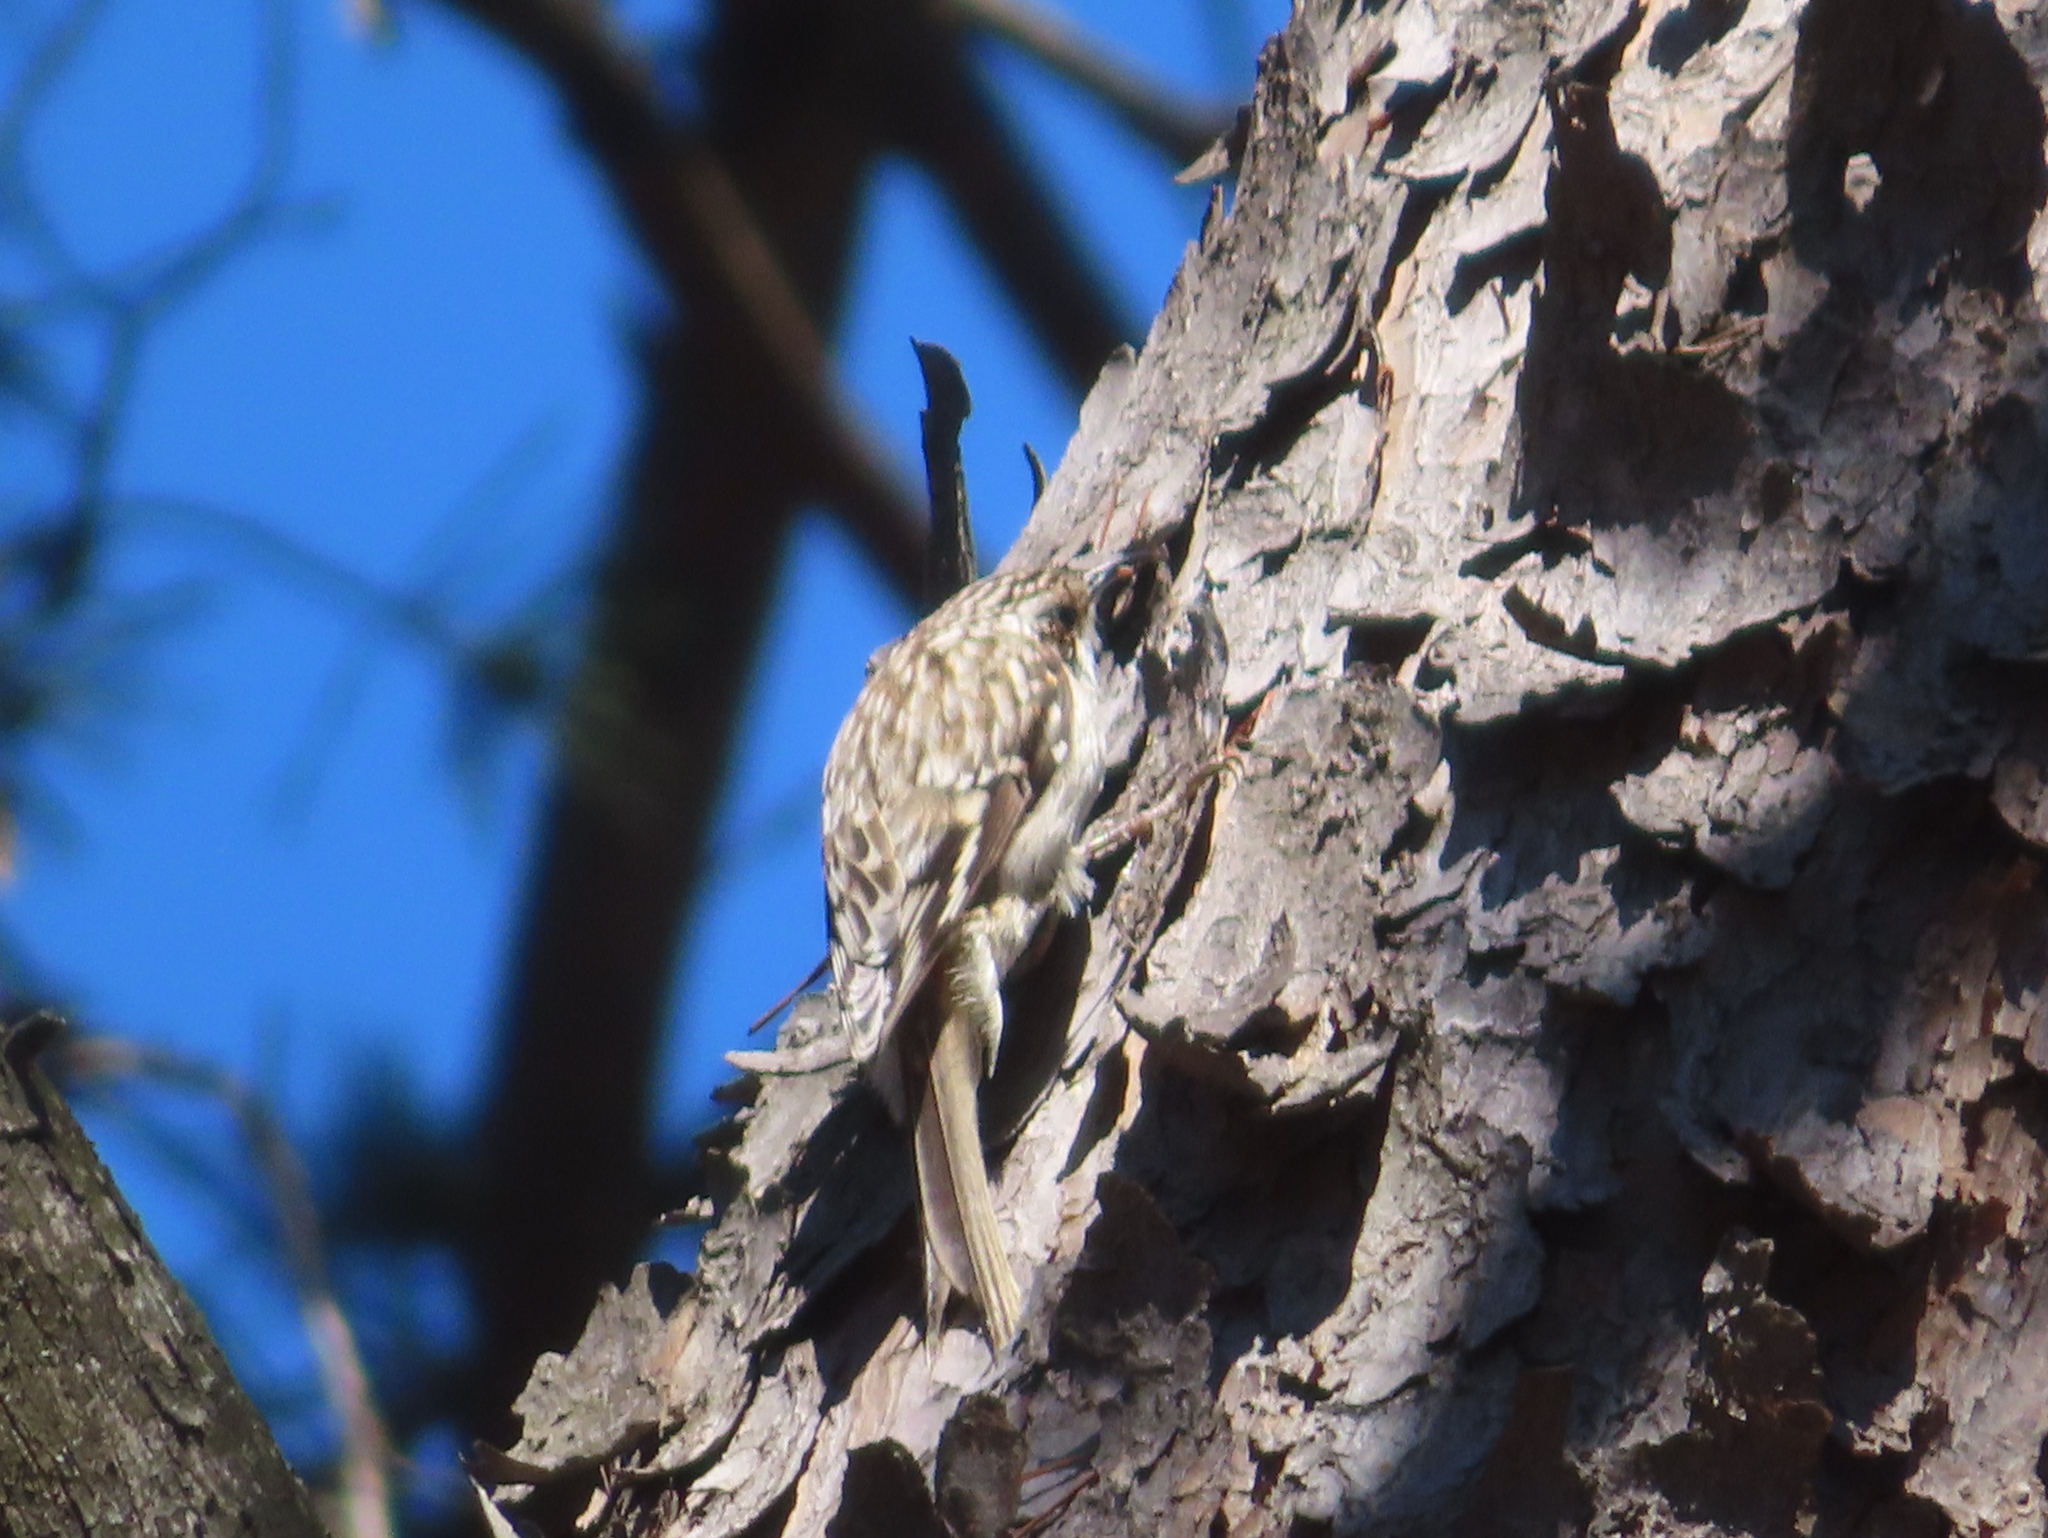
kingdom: Animalia
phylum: Chordata
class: Aves
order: Passeriformes
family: Certhiidae
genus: Certhia
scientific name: Certhia americana
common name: Brown creeper
